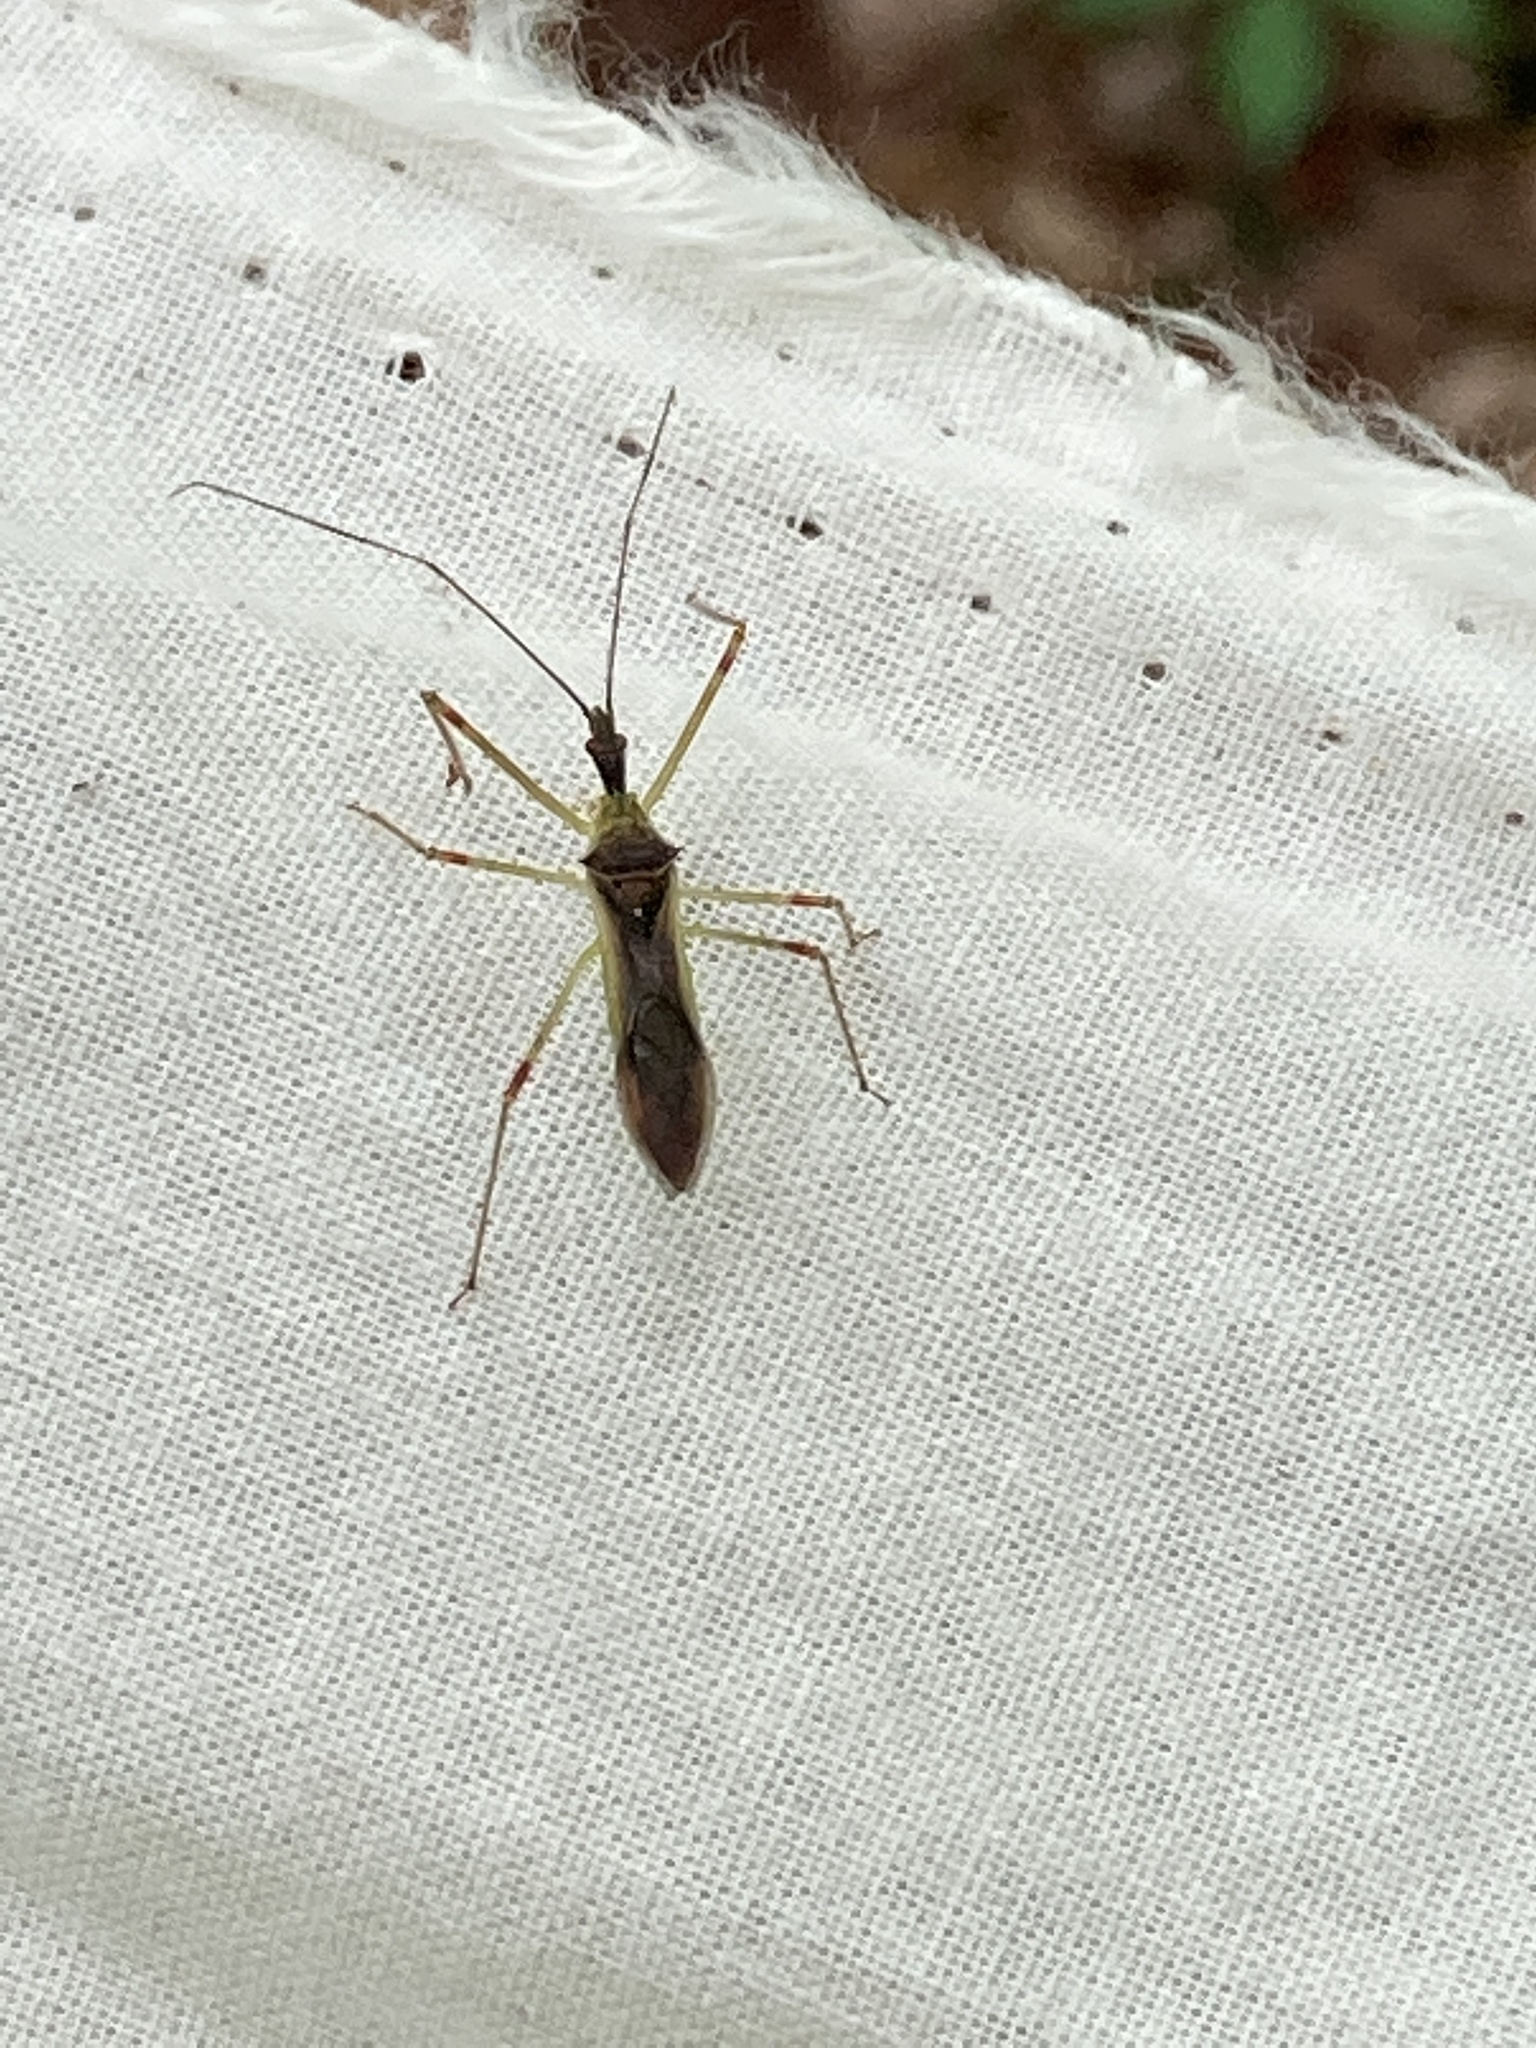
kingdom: Animalia
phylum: Arthropoda
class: Insecta
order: Hemiptera
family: Reduviidae
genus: Zelus
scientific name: Zelus luridus
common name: Pale green assassin bug
